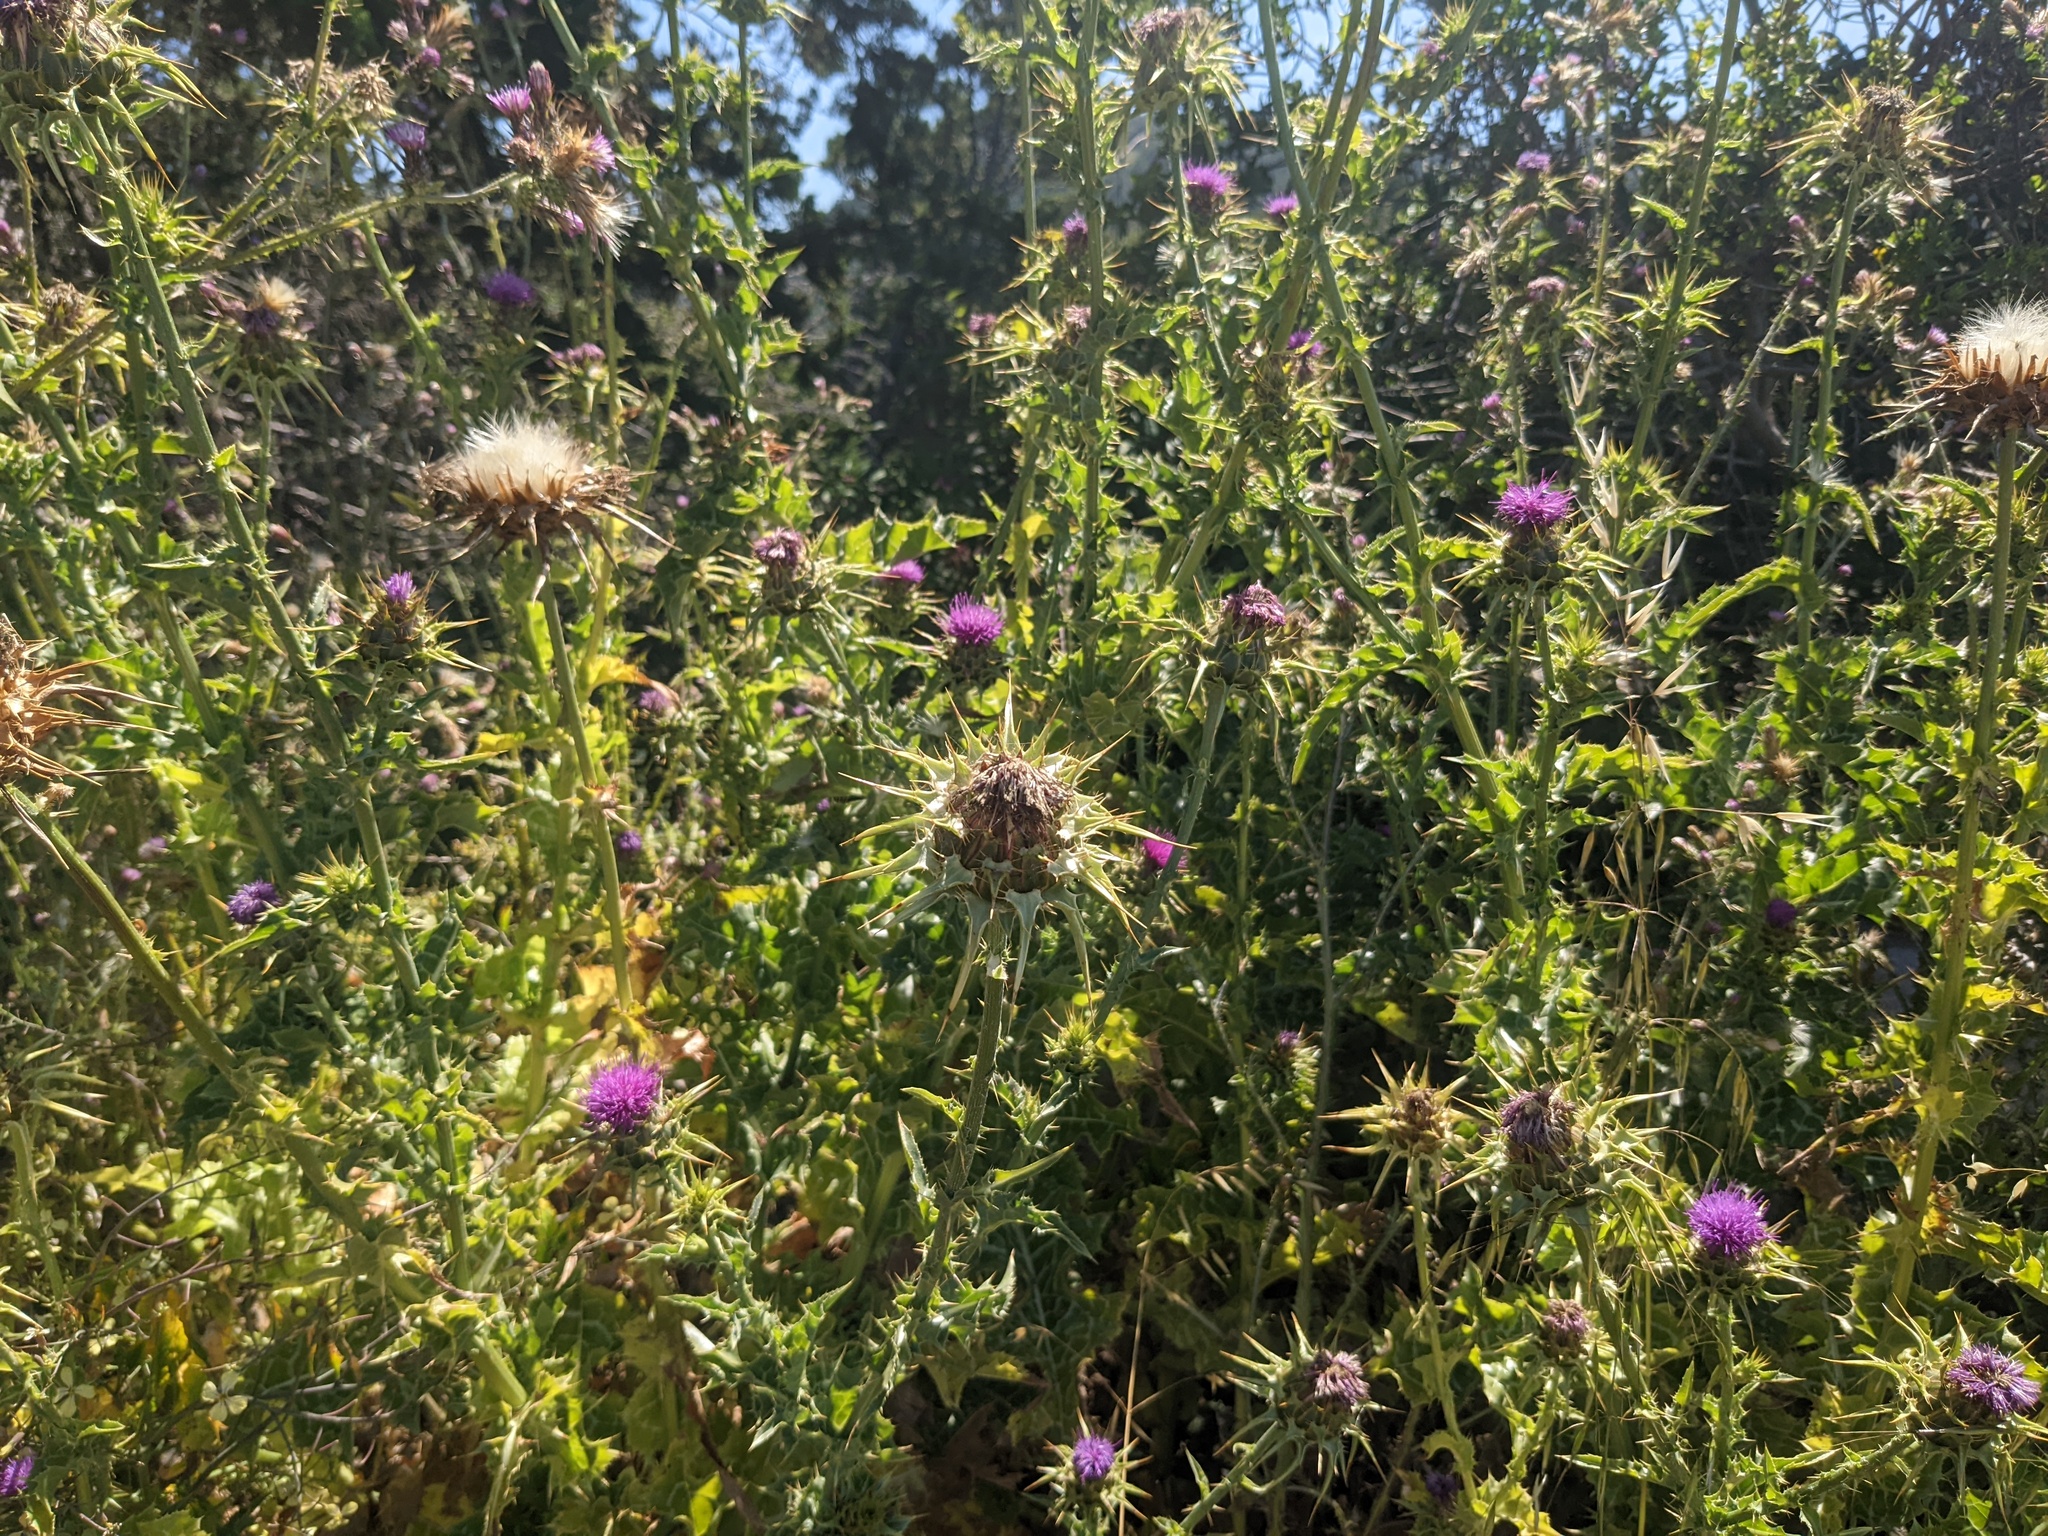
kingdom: Plantae
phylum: Tracheophyta
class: Magnoliopsida
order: Asterales
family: Asteraceae
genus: Silybum
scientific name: Silybum marianum
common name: Milk thistle
